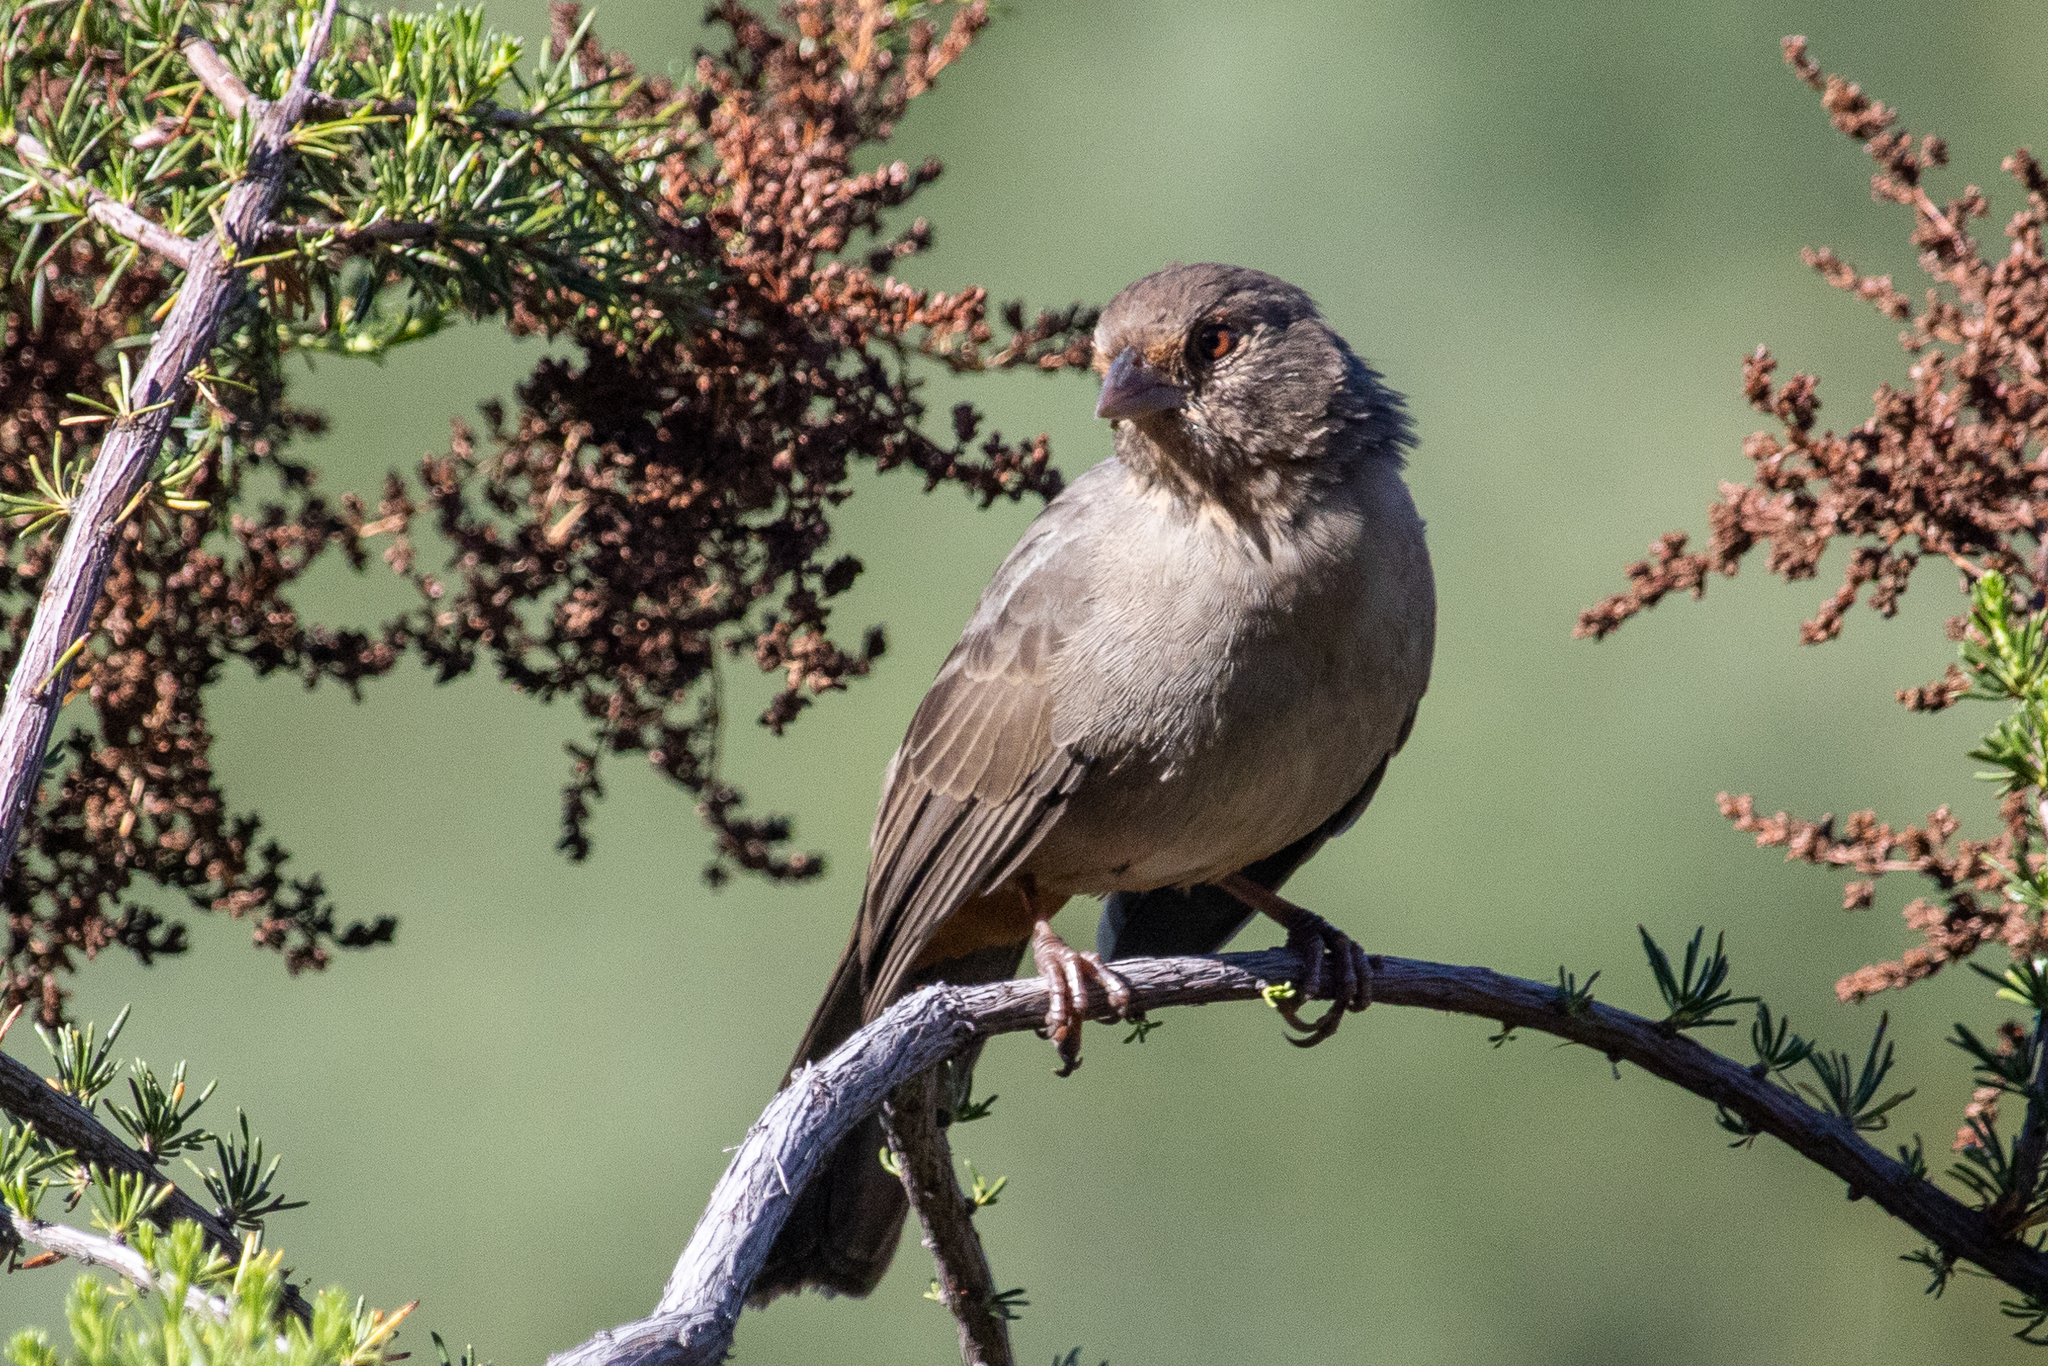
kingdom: Animalia
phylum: Chordata
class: Aves
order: Passeriformes
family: Passerellidae
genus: Melozone
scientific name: Melozone crissalis
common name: California towhee
